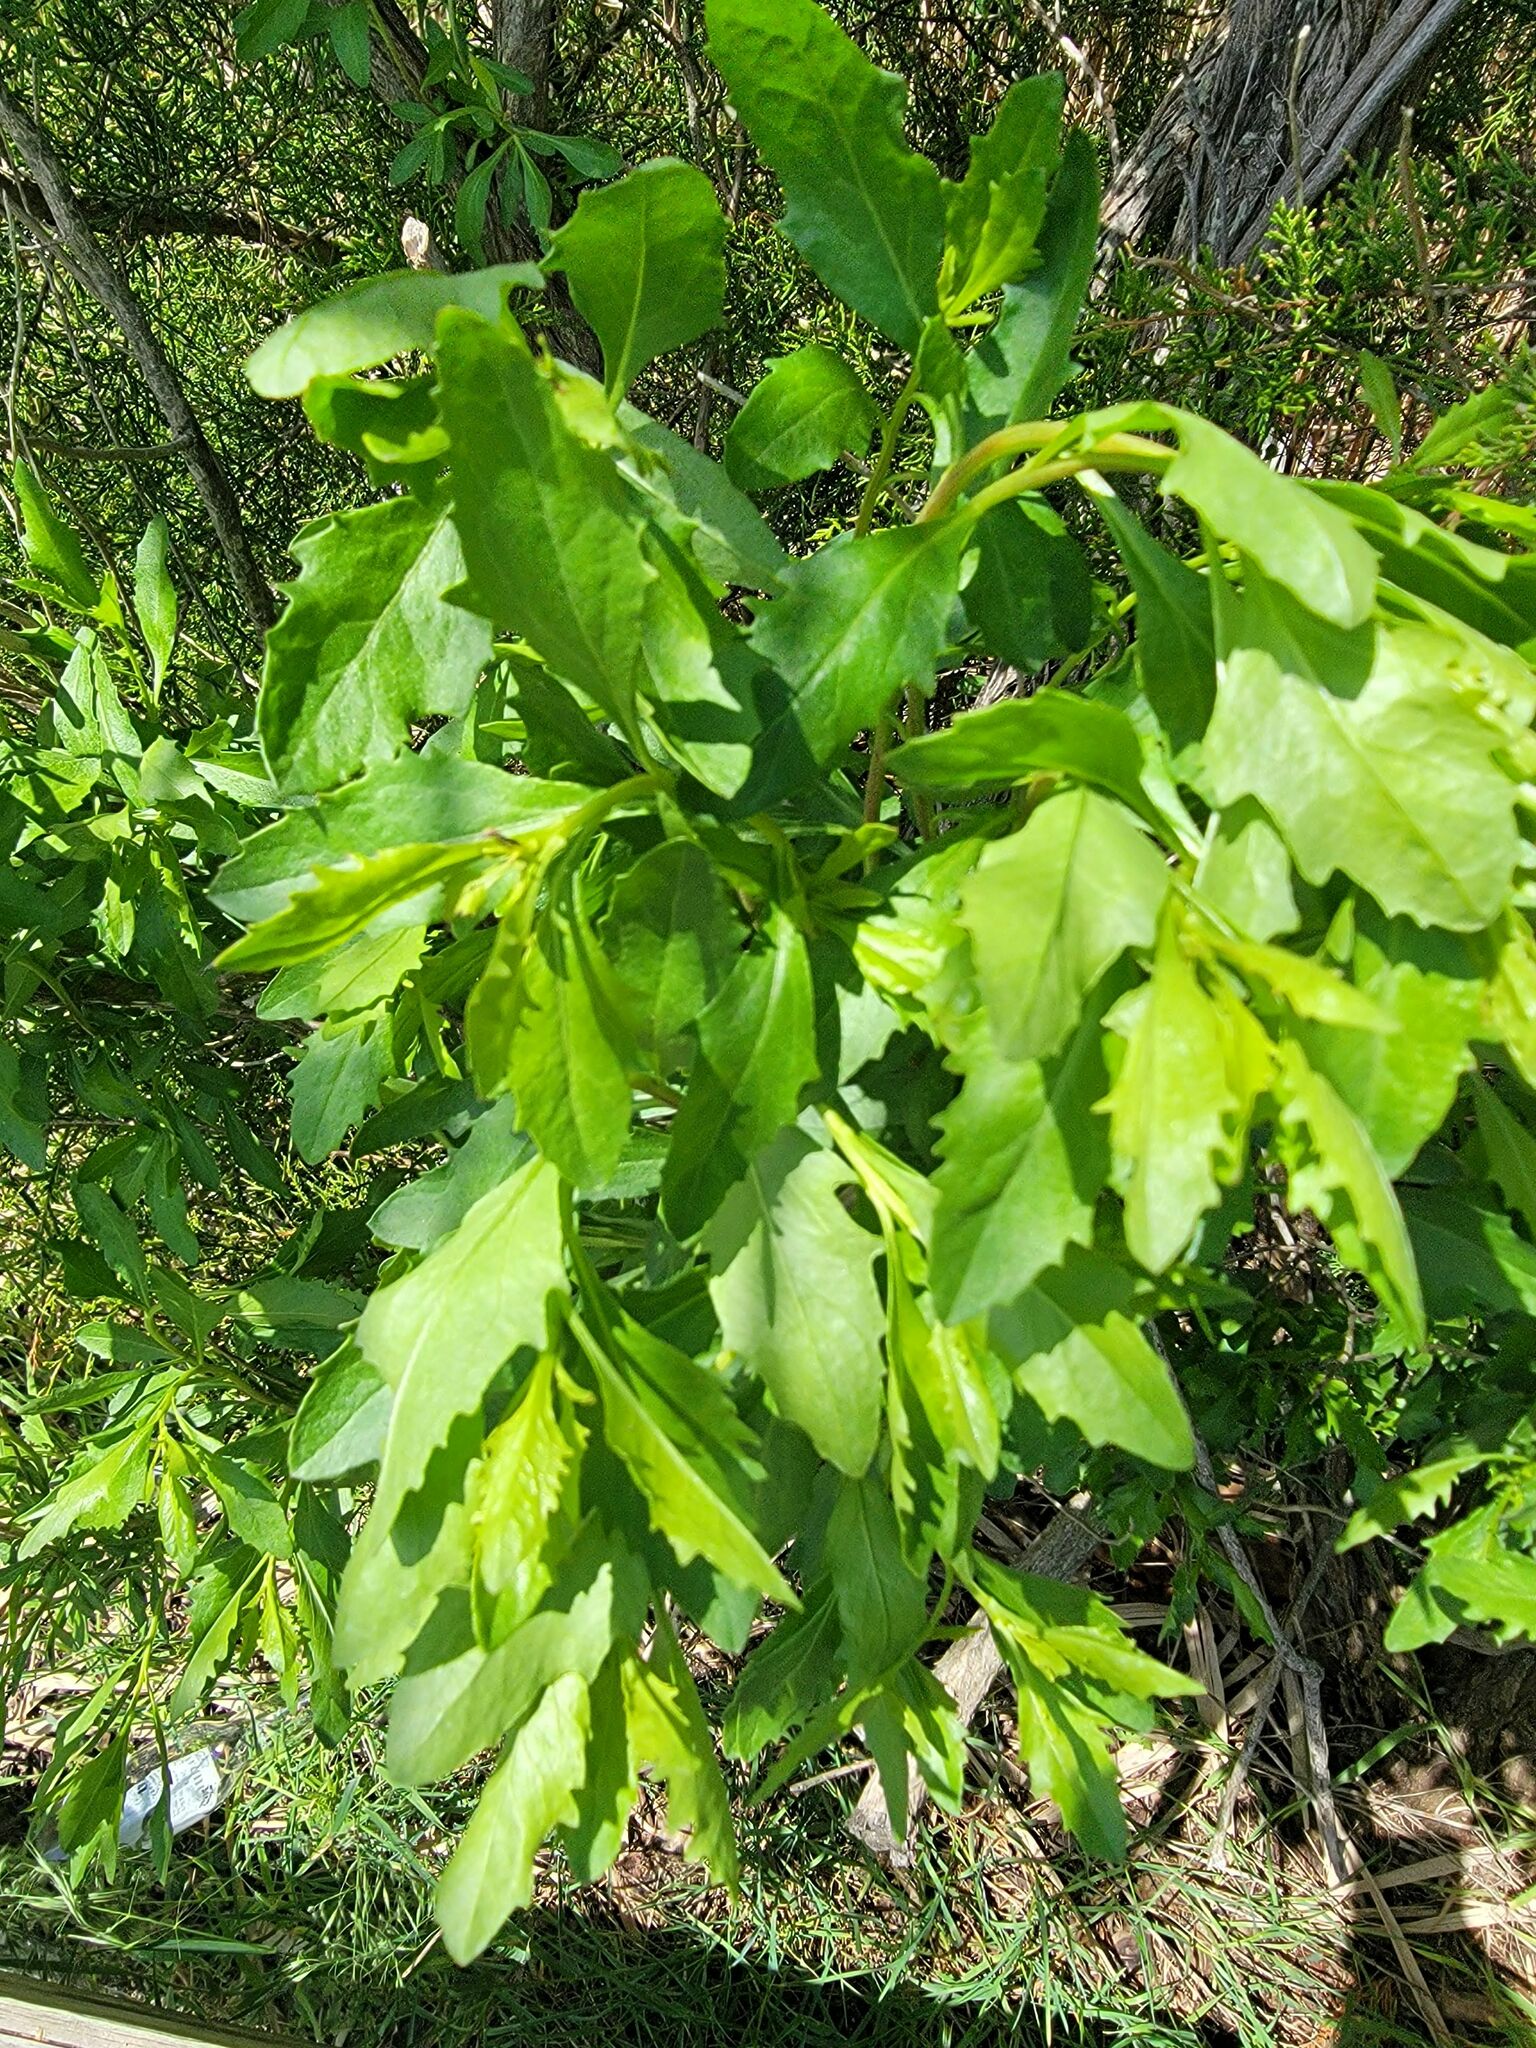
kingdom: Plantae
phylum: Tracheophyta
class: Magnoliopsida
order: Asterales
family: Asteraceae
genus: Baccharis
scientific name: Baccharis halimifolia
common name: Eastern baccharis
